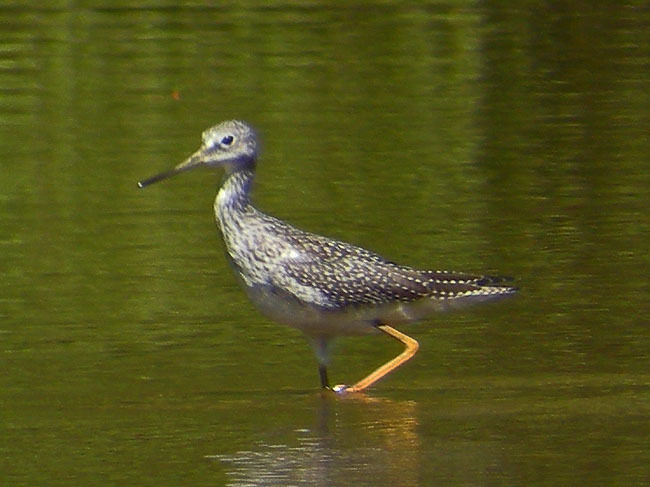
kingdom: Animalia
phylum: Chordata
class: Aves
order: Charadriiformes
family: Scolopacidae
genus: Tringa
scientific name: Tringa melanoleuca
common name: Greater yellowlegs
